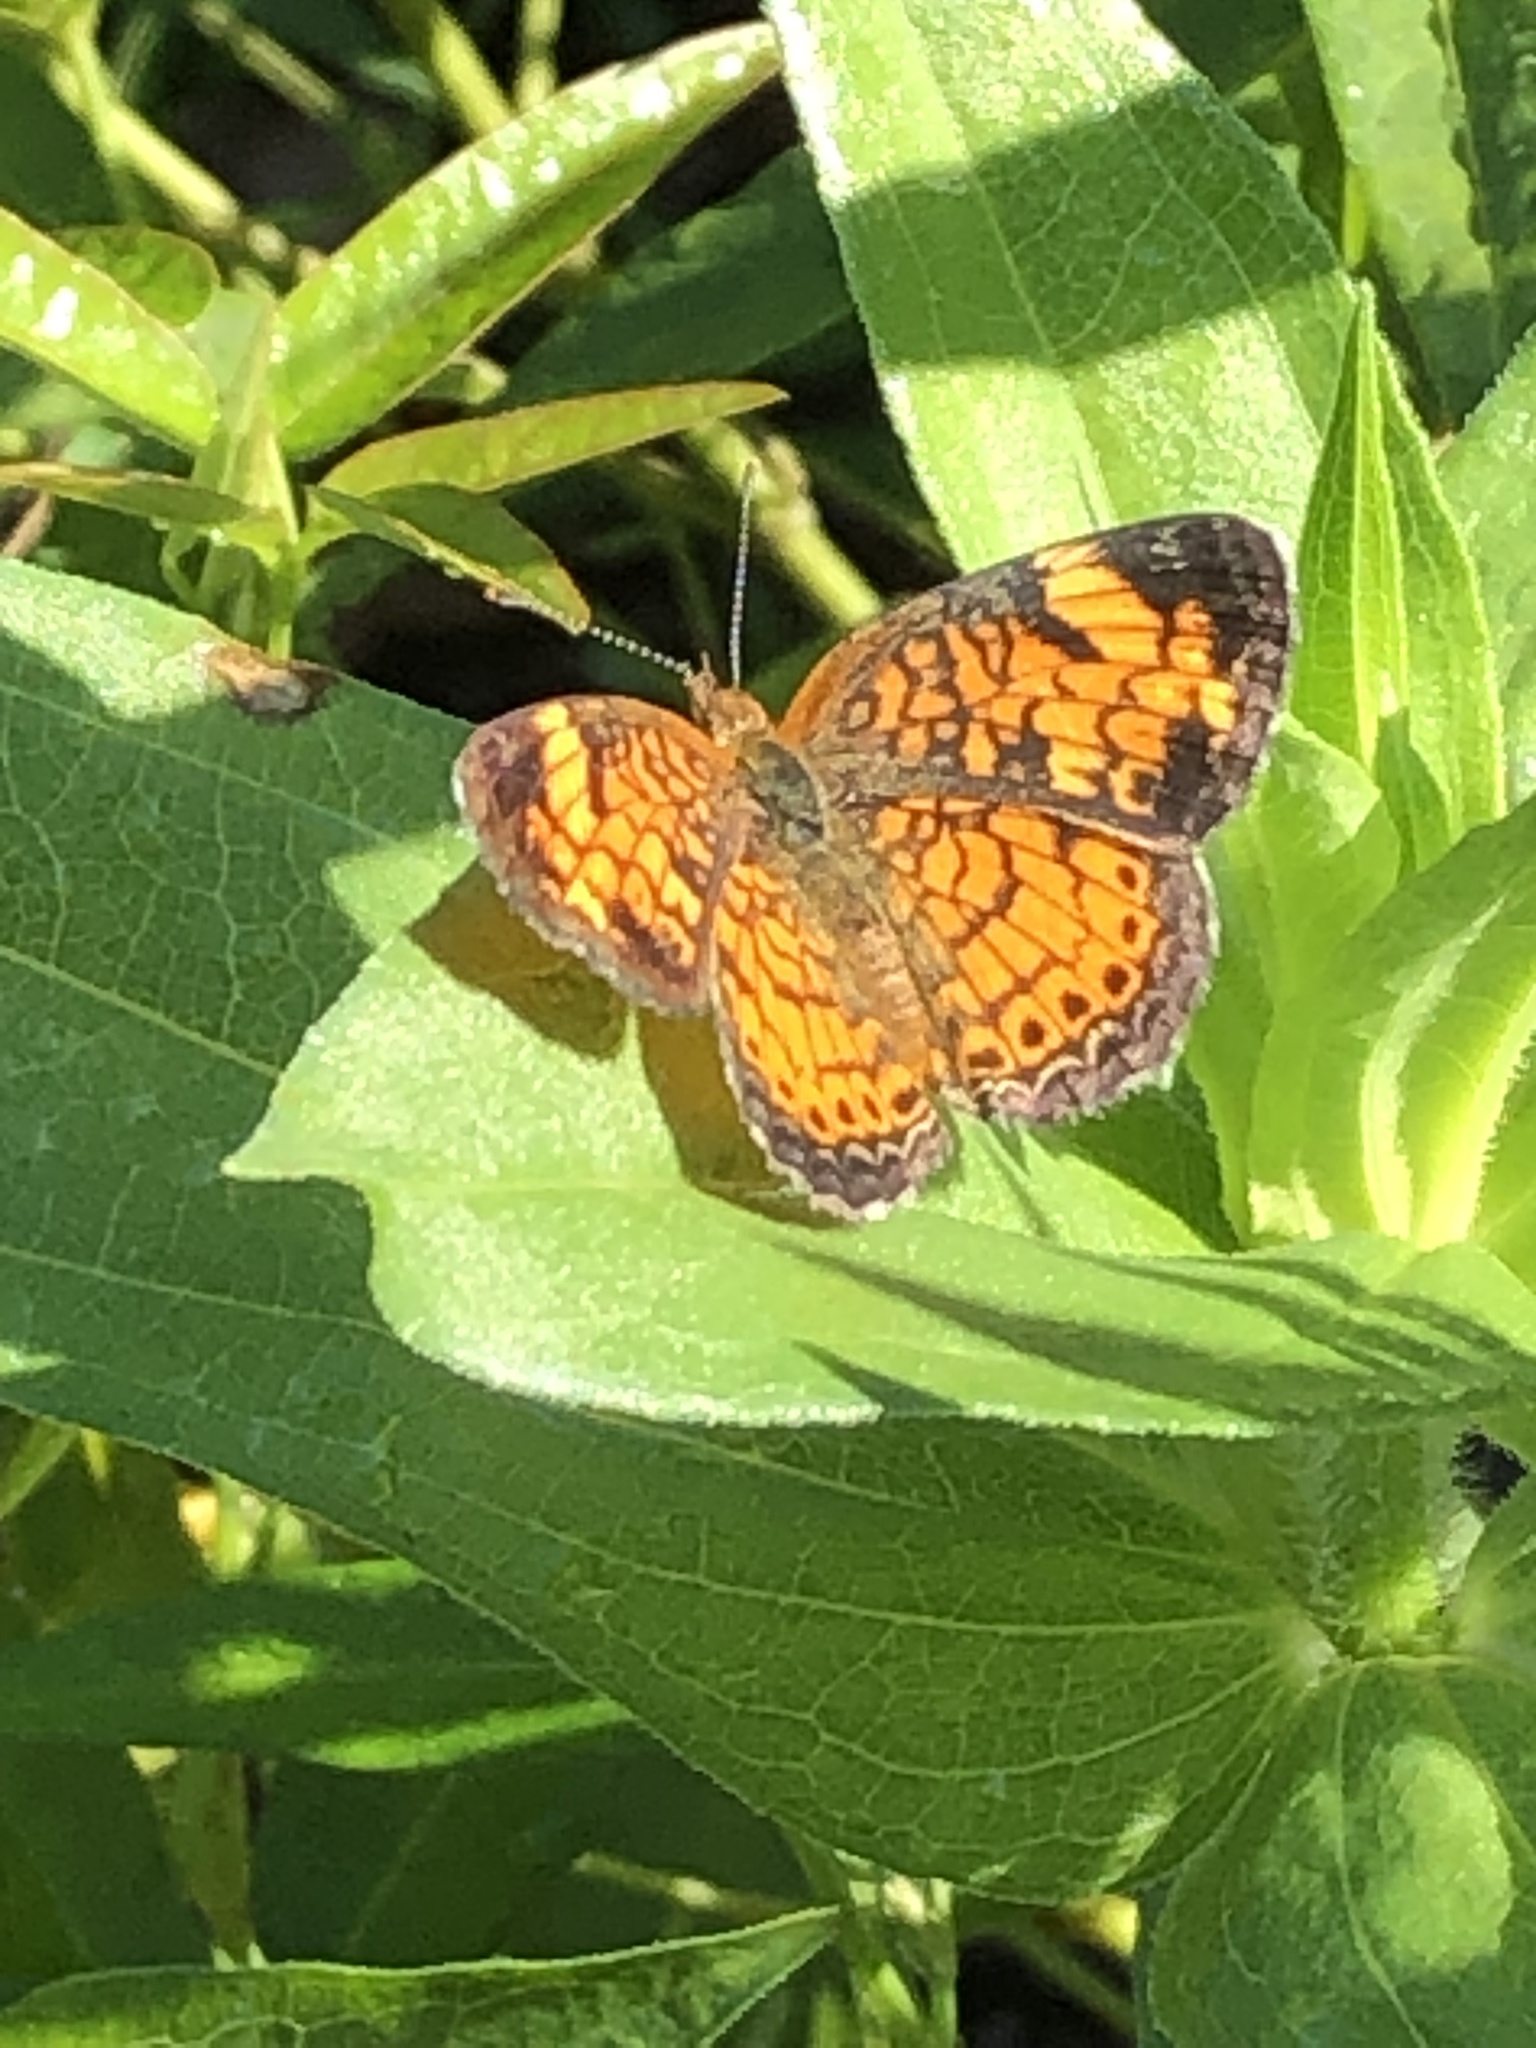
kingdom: Animalia
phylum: Arthropoda
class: Insecta
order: Lepidoptera
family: Nymphalidae
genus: Phyciodes
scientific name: Phyciodes tharos
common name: Pearl crescent
